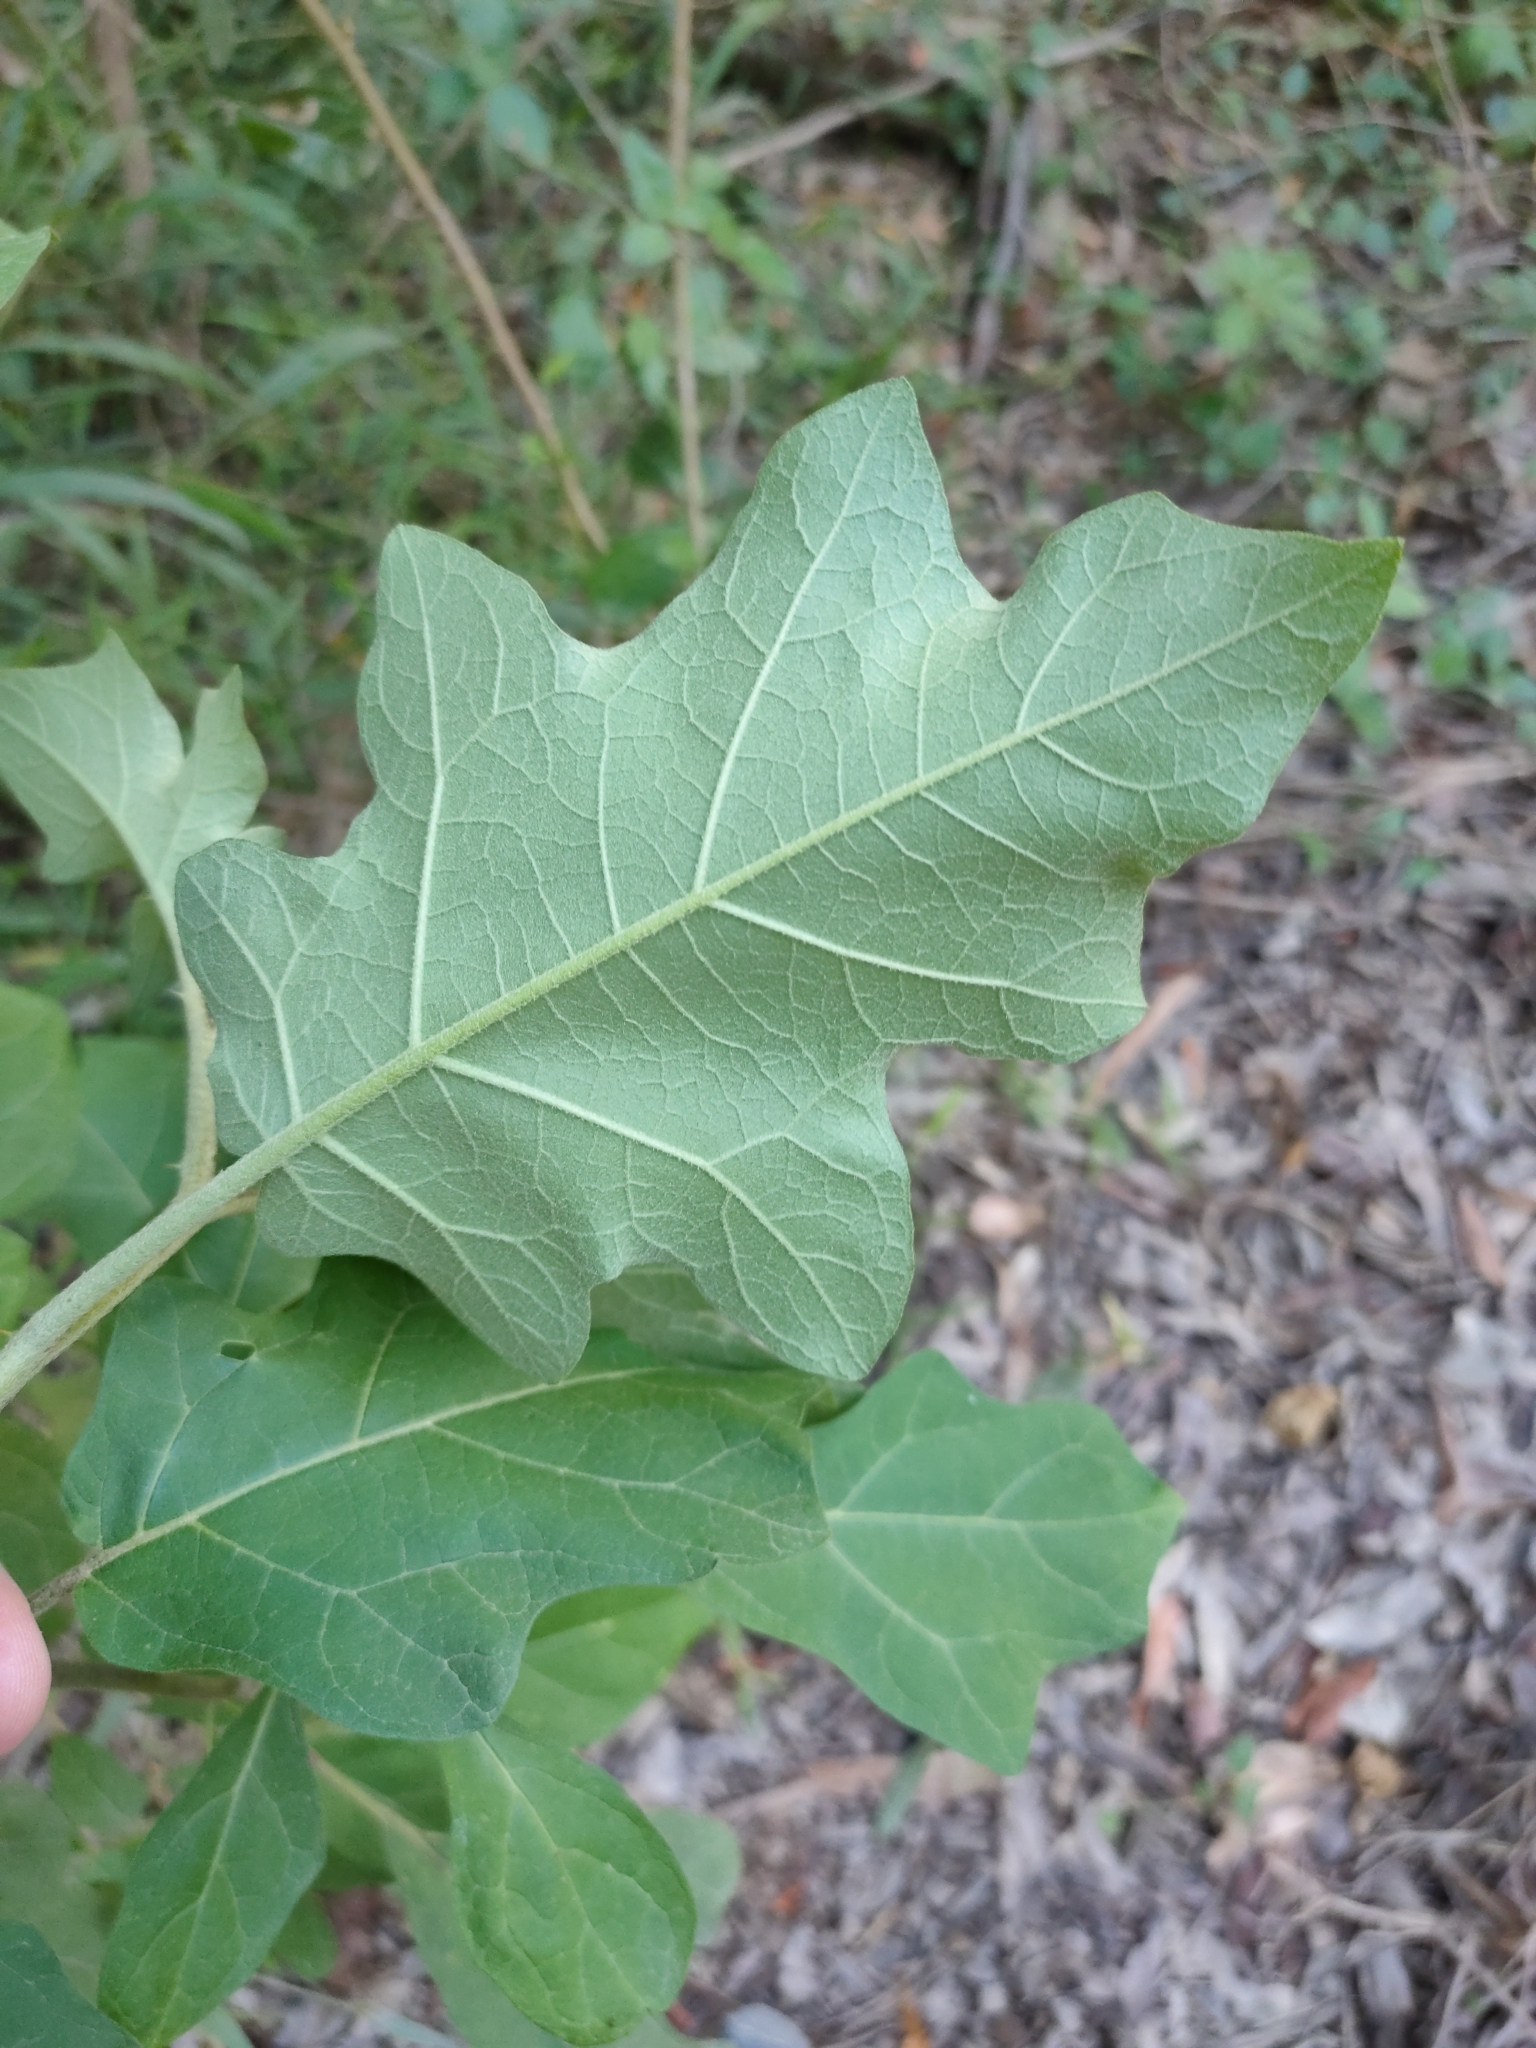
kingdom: Plantae
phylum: Tracheophyta
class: Magnoliopsida
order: Solanales
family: Solanaceae
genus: Solanum
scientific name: Solanum torvum
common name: Turkey berry
